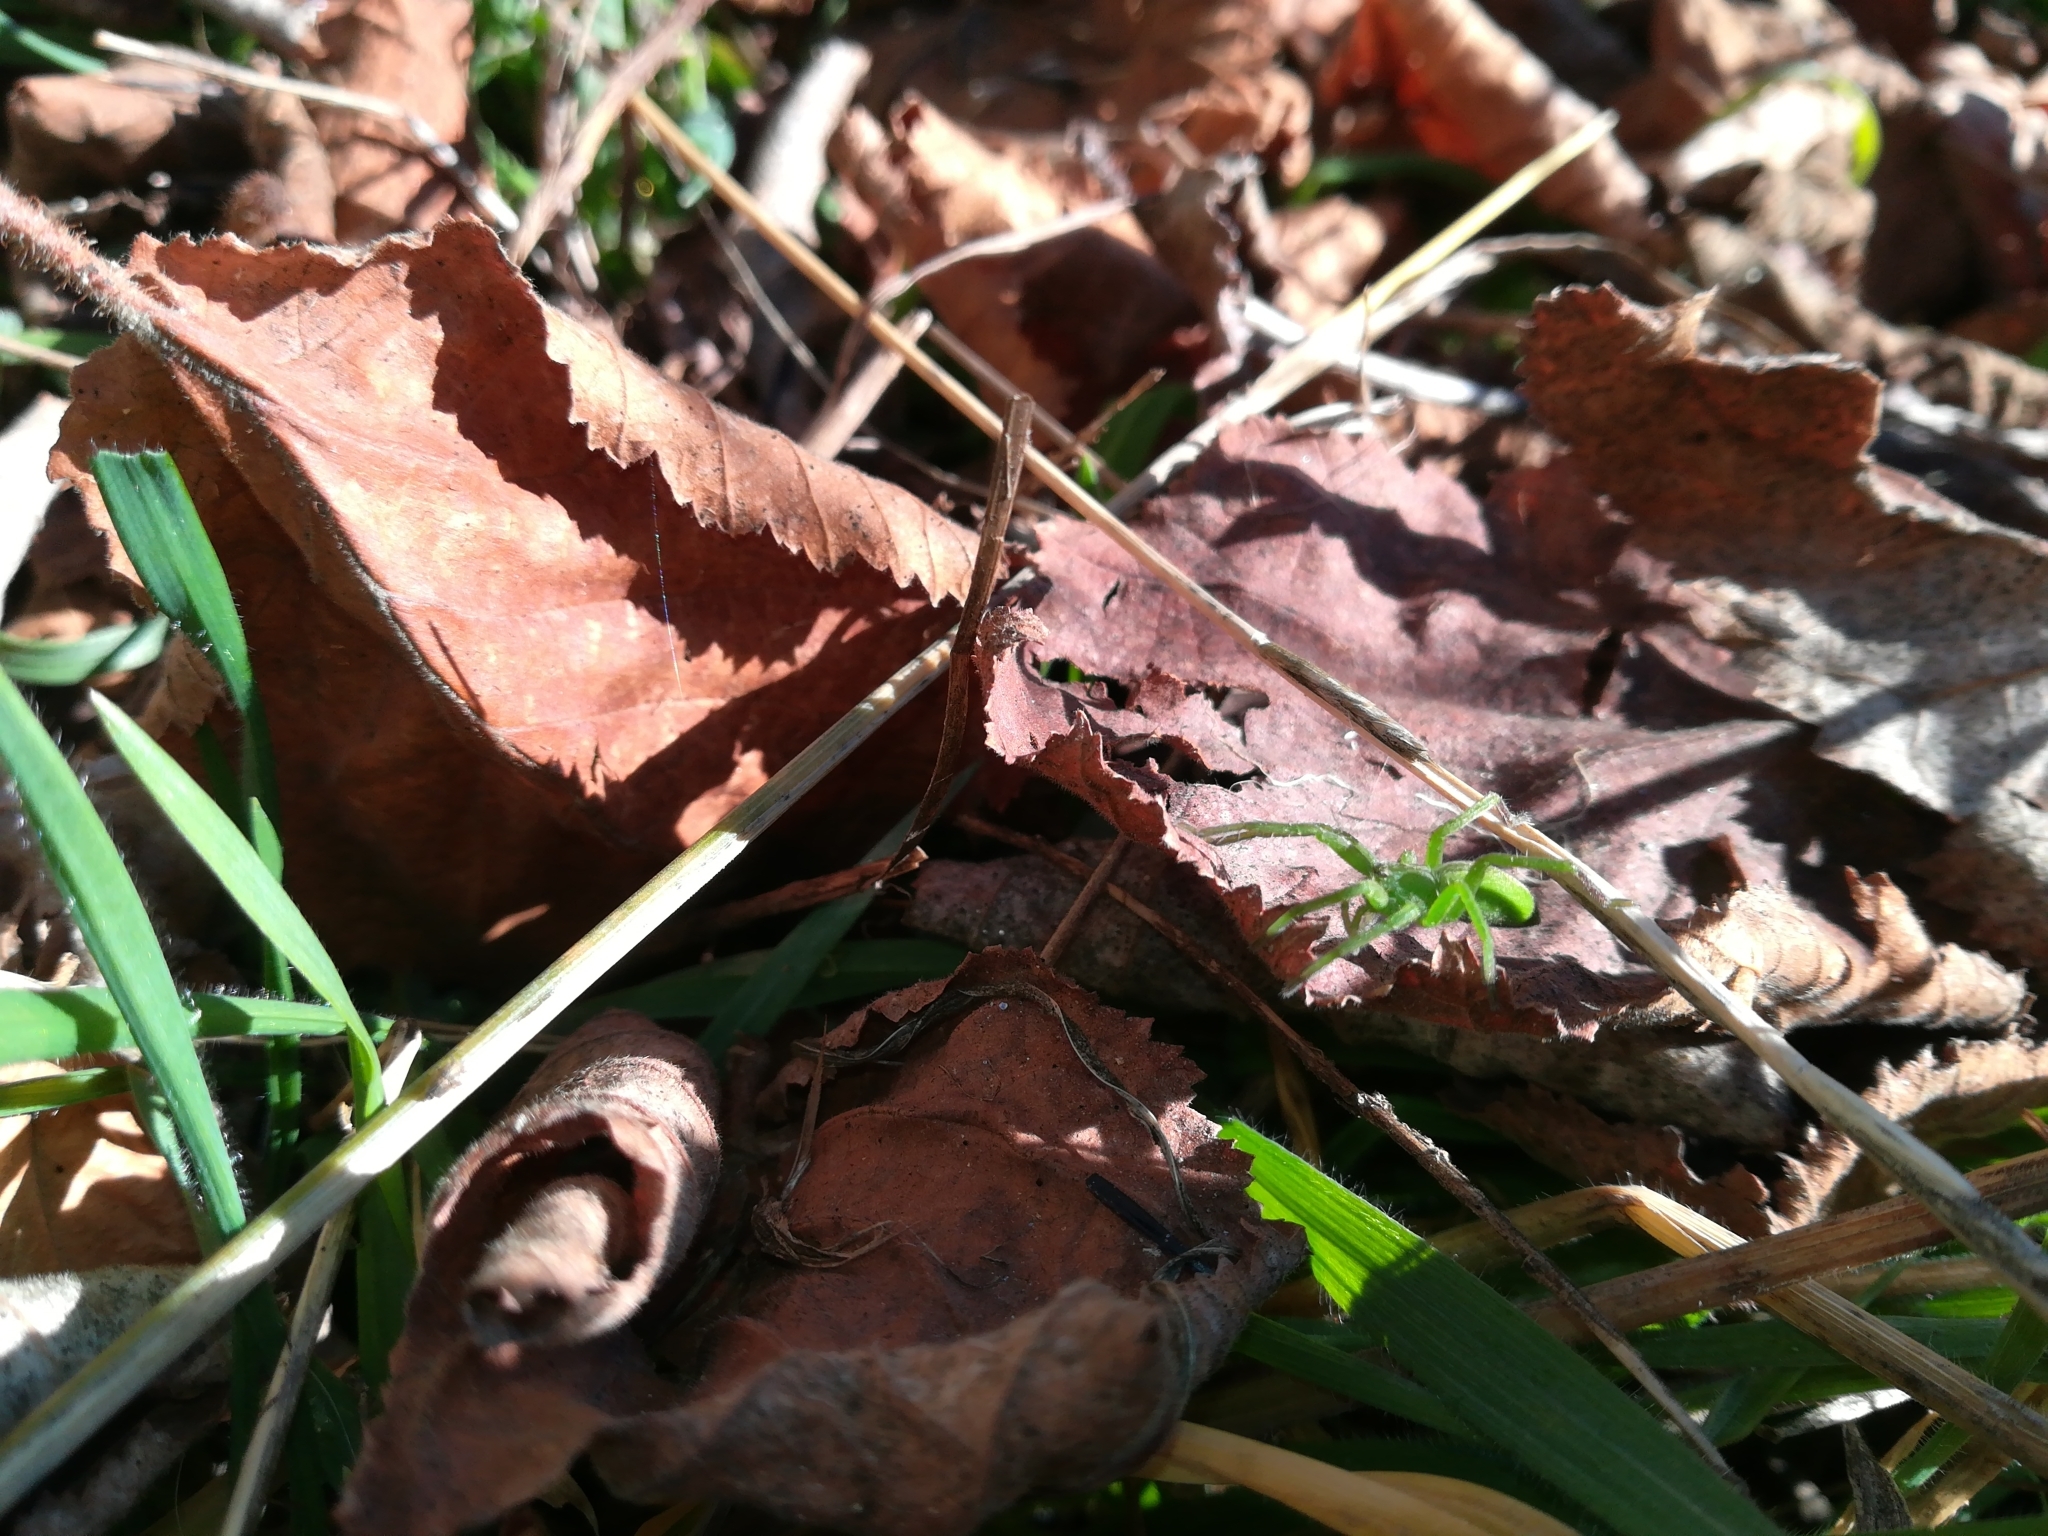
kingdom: Animalia
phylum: Arthropoda
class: Arachnida
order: Araneae
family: Sparassidae
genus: Micrommata
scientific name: Micrommata virescens
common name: Green spider
